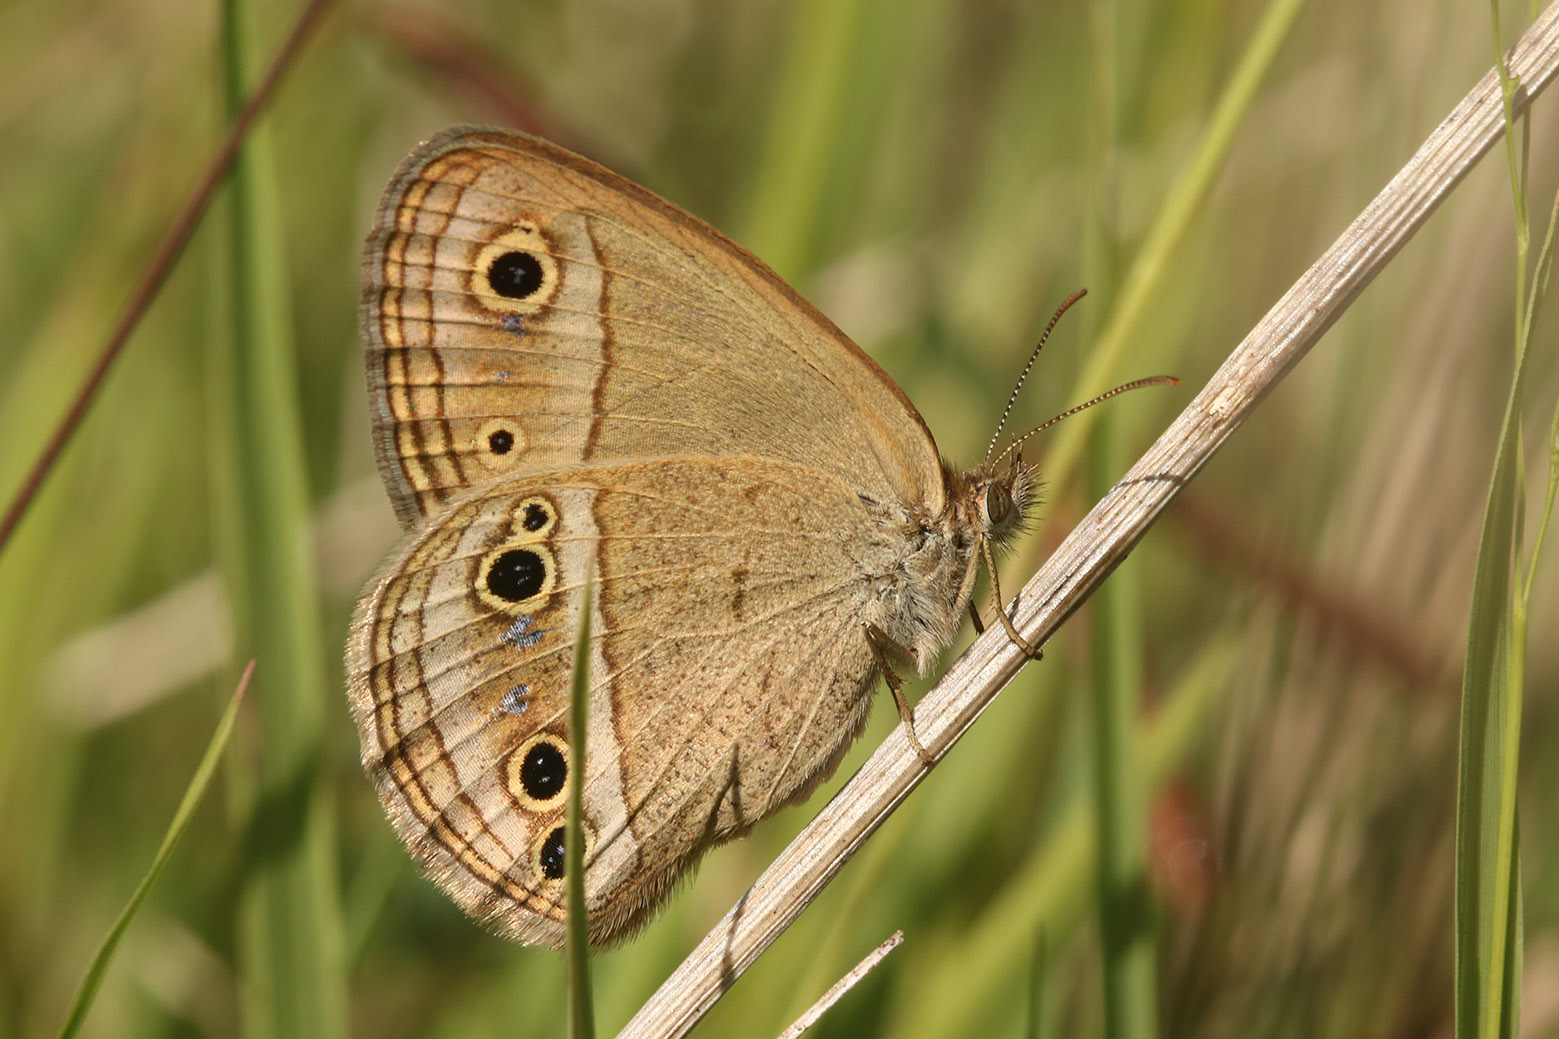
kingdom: Animalia
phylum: Arthropoda
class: Insecta
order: Lepidoptera
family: Nymphalidae
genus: Stegosatyrus
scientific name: Stegosatyrus periphas
